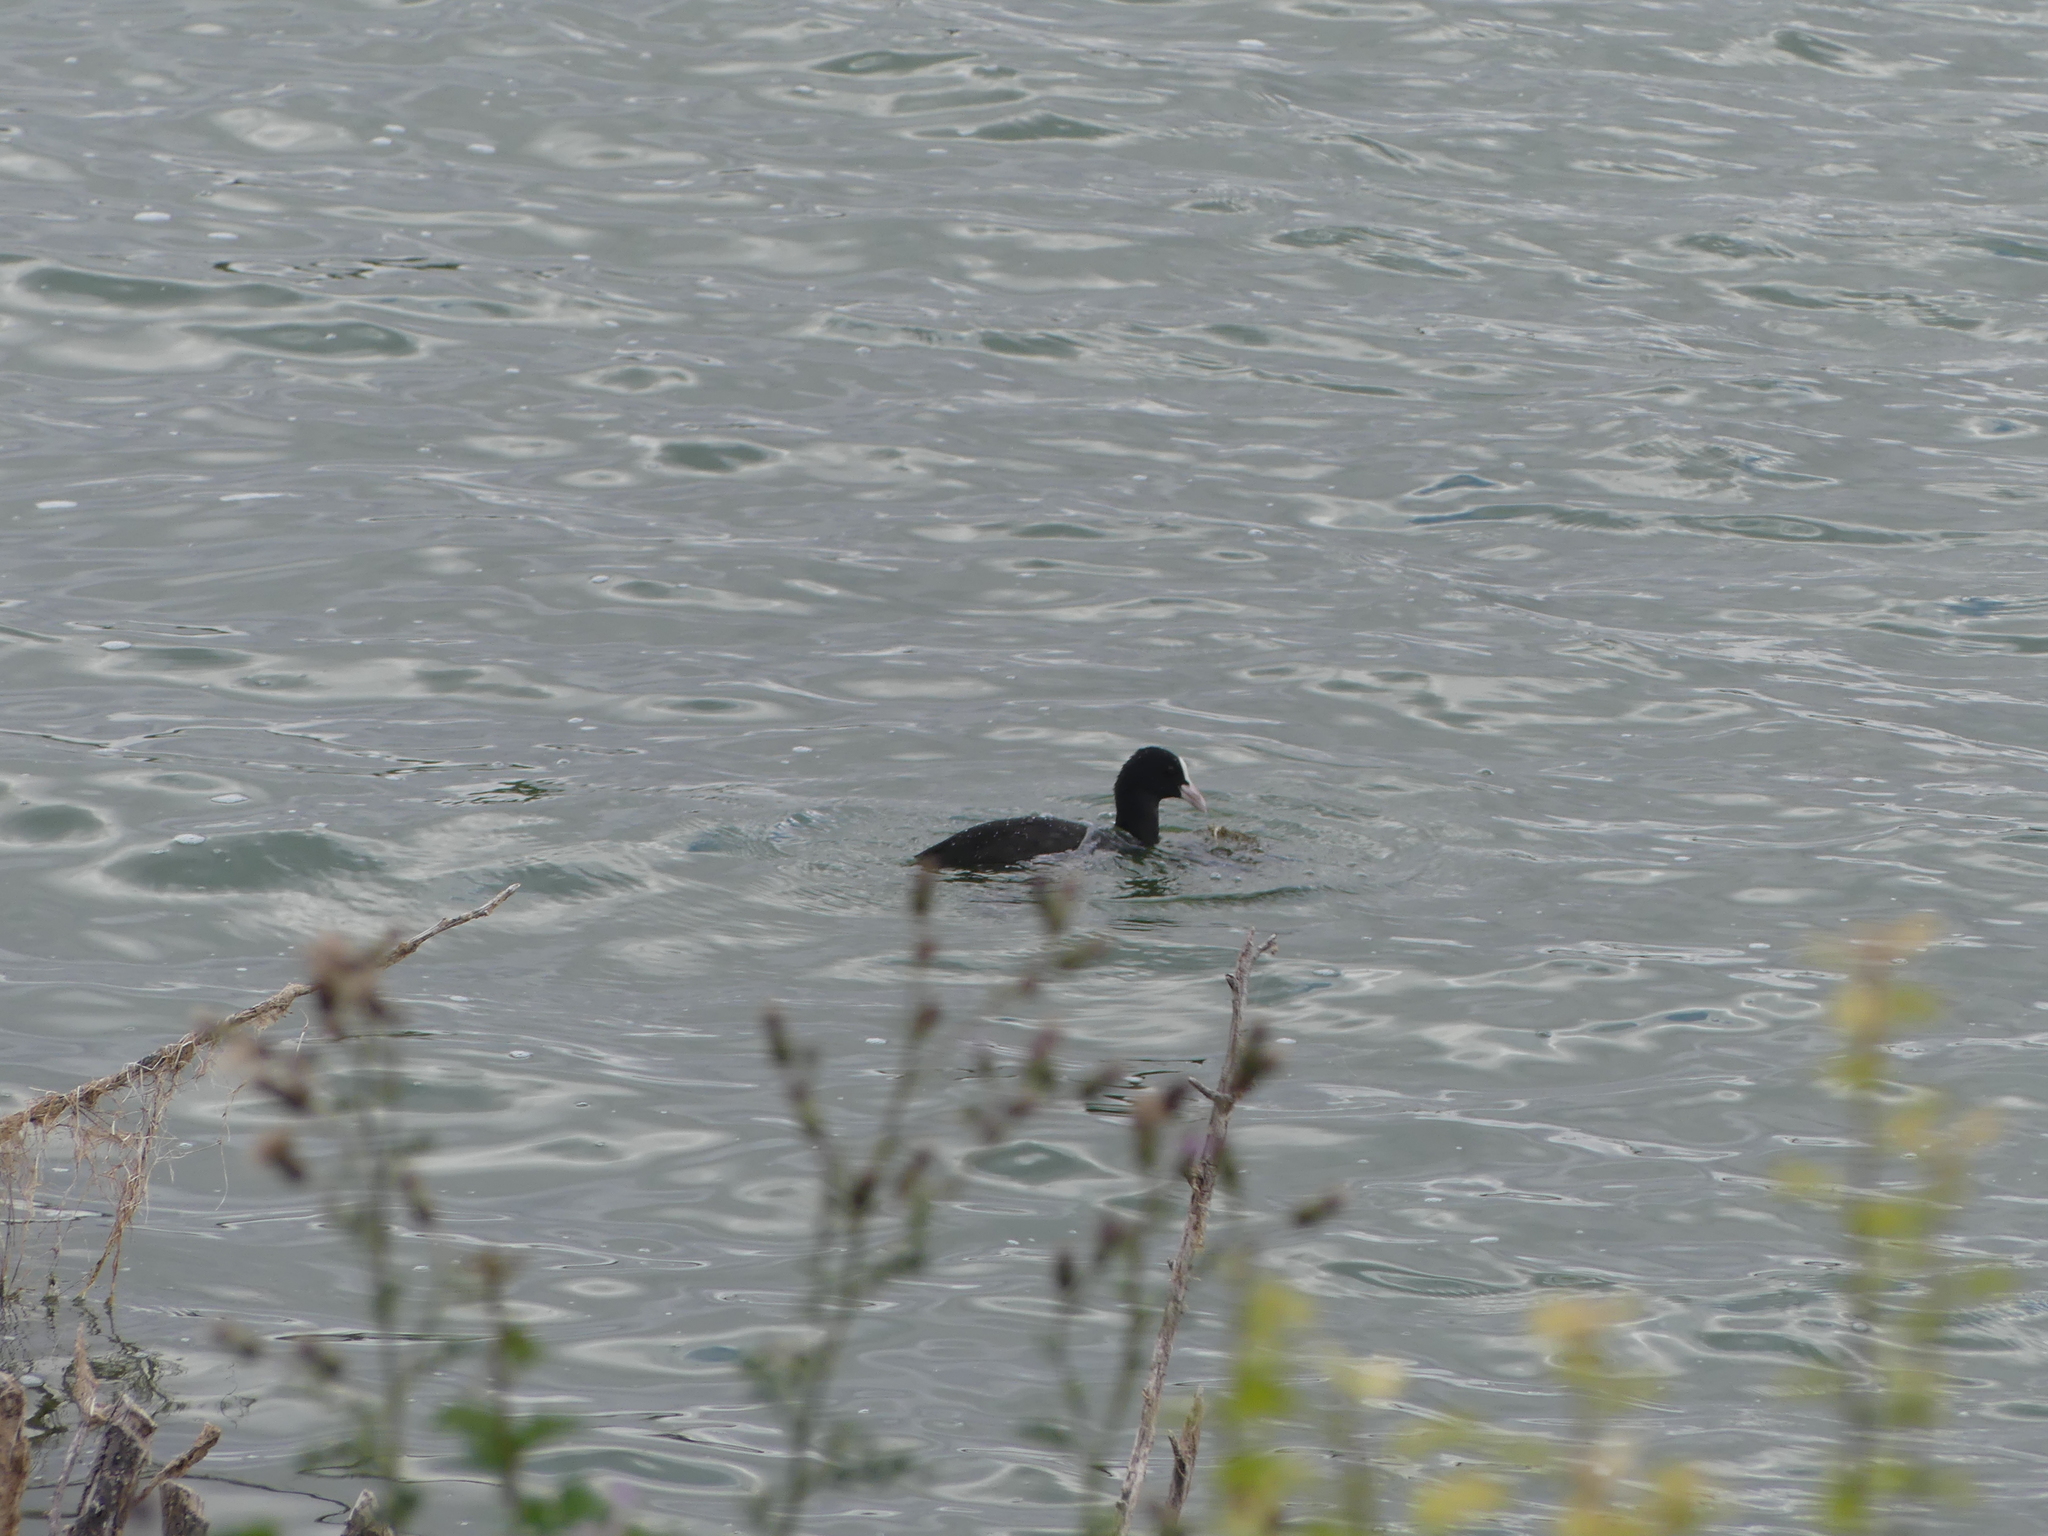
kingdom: Animalia
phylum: Chordata
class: Aves
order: Gruiformes
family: Rallidae
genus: Fulica
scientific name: Fulica atra
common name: Eurasian coot
